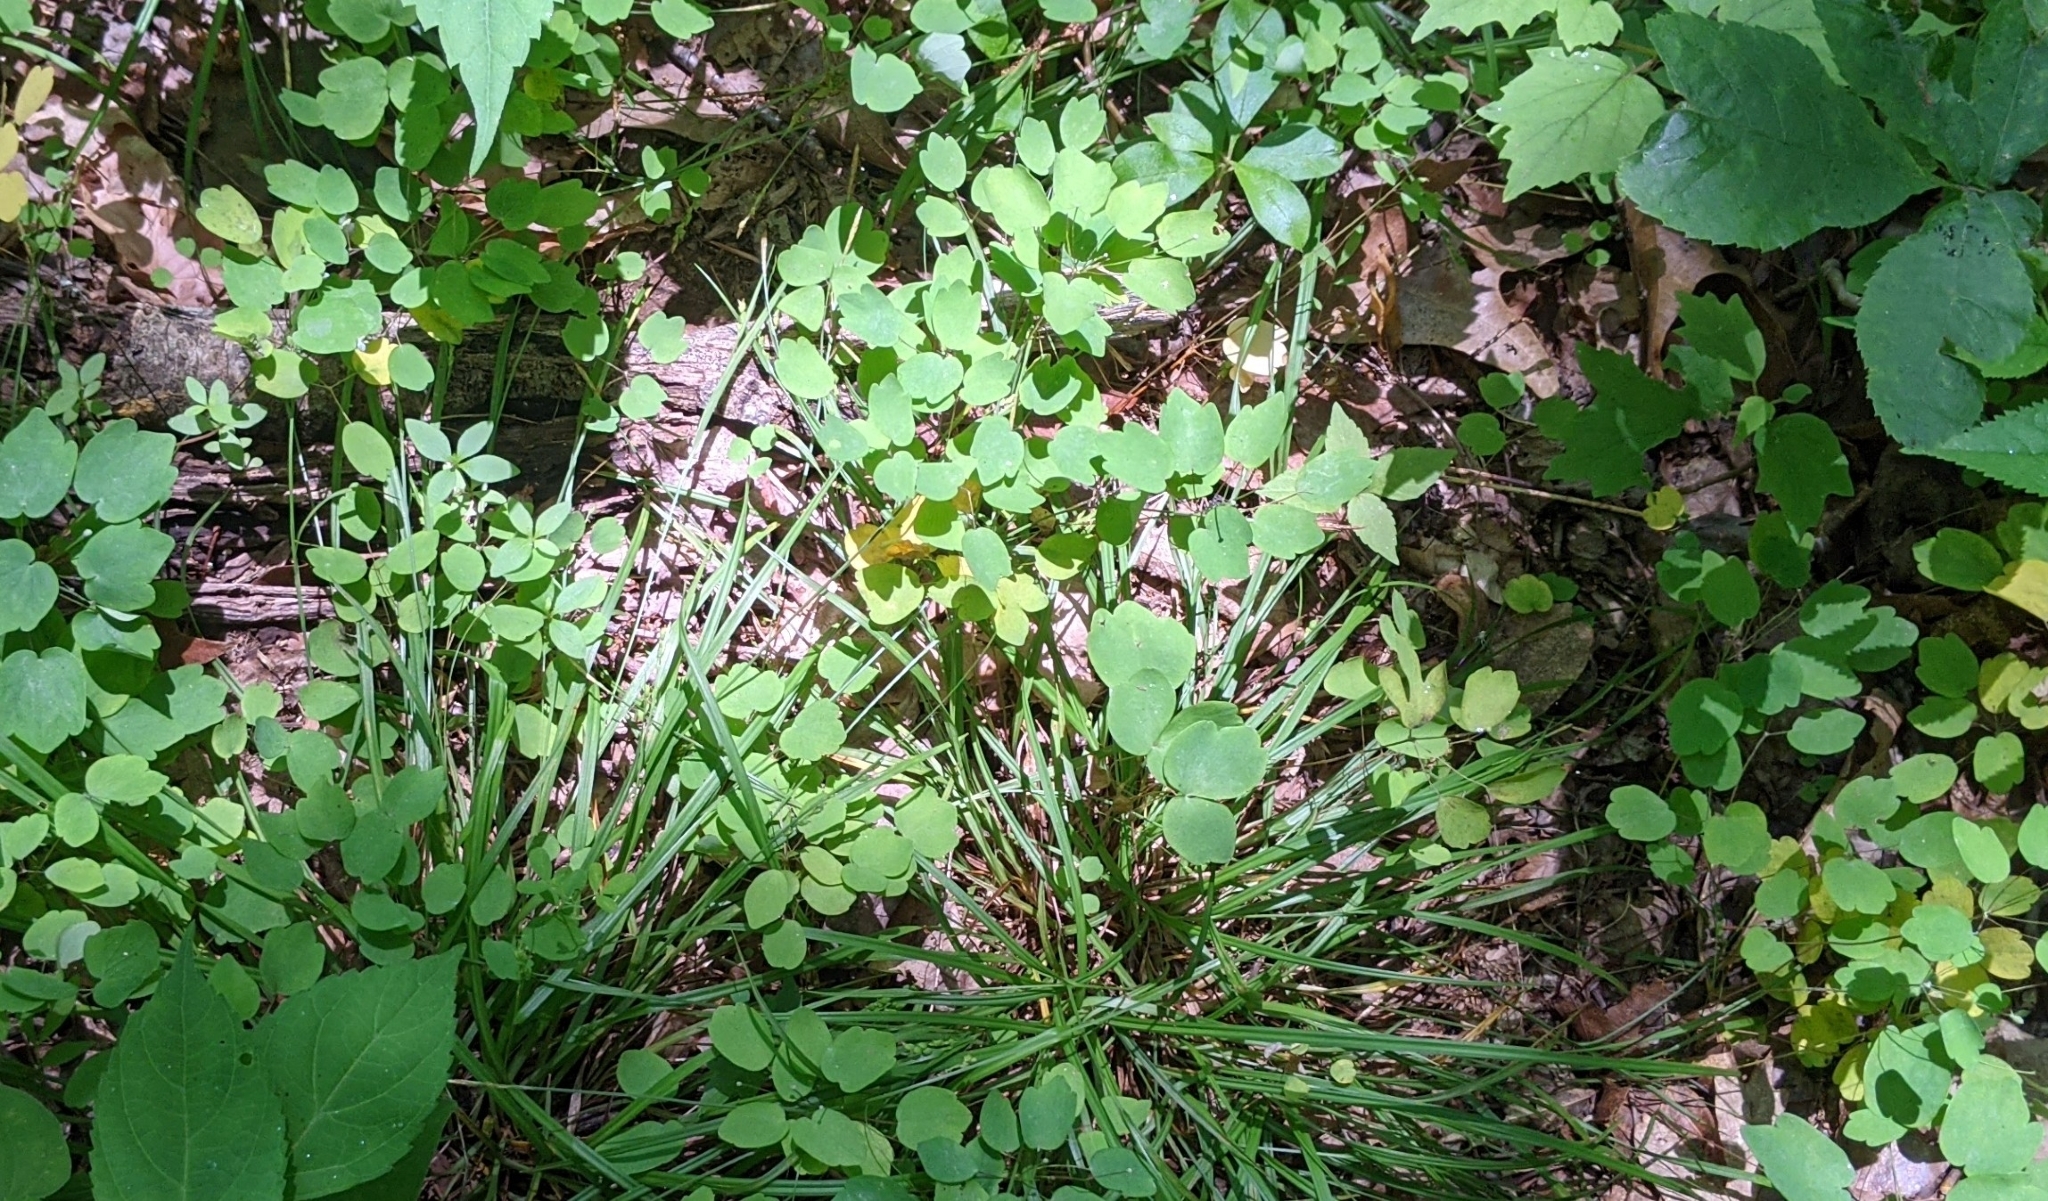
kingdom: Plantae
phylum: Tracheophyta
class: Magnoliopsida
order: Ranunculales
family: Ranunculaceae
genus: Thalictrum
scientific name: Thalictrum thalictroides
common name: Rue-anemone
